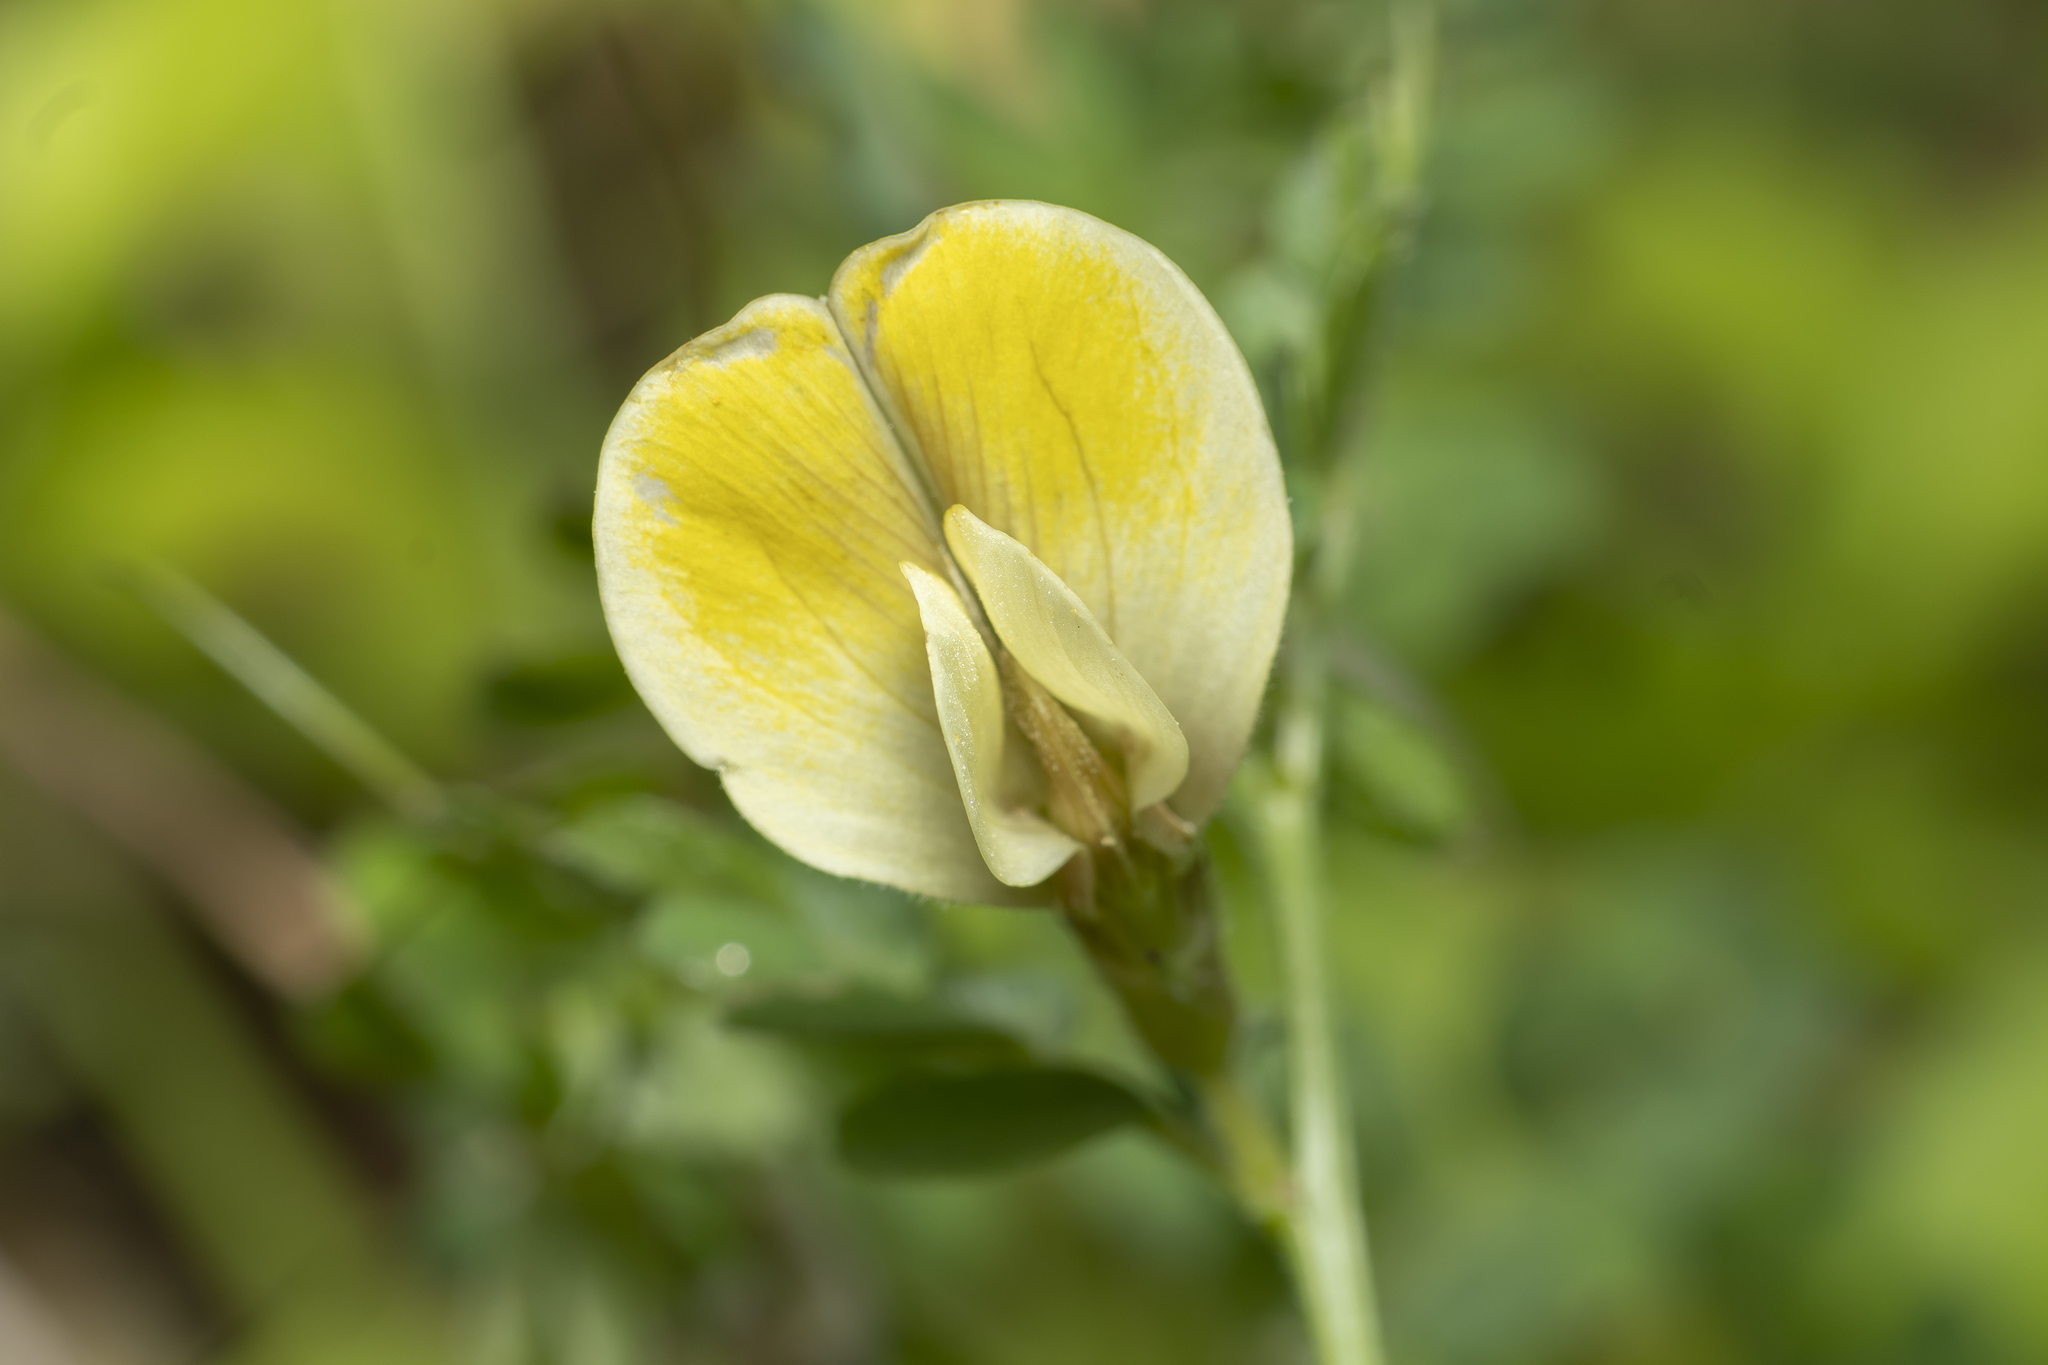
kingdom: Plantae
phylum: Tracheophyta
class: Magnoliopsida
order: Fabales
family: Fabaceae
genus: Vicia
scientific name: Vicia hybrida
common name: Hairy yellow vetch
